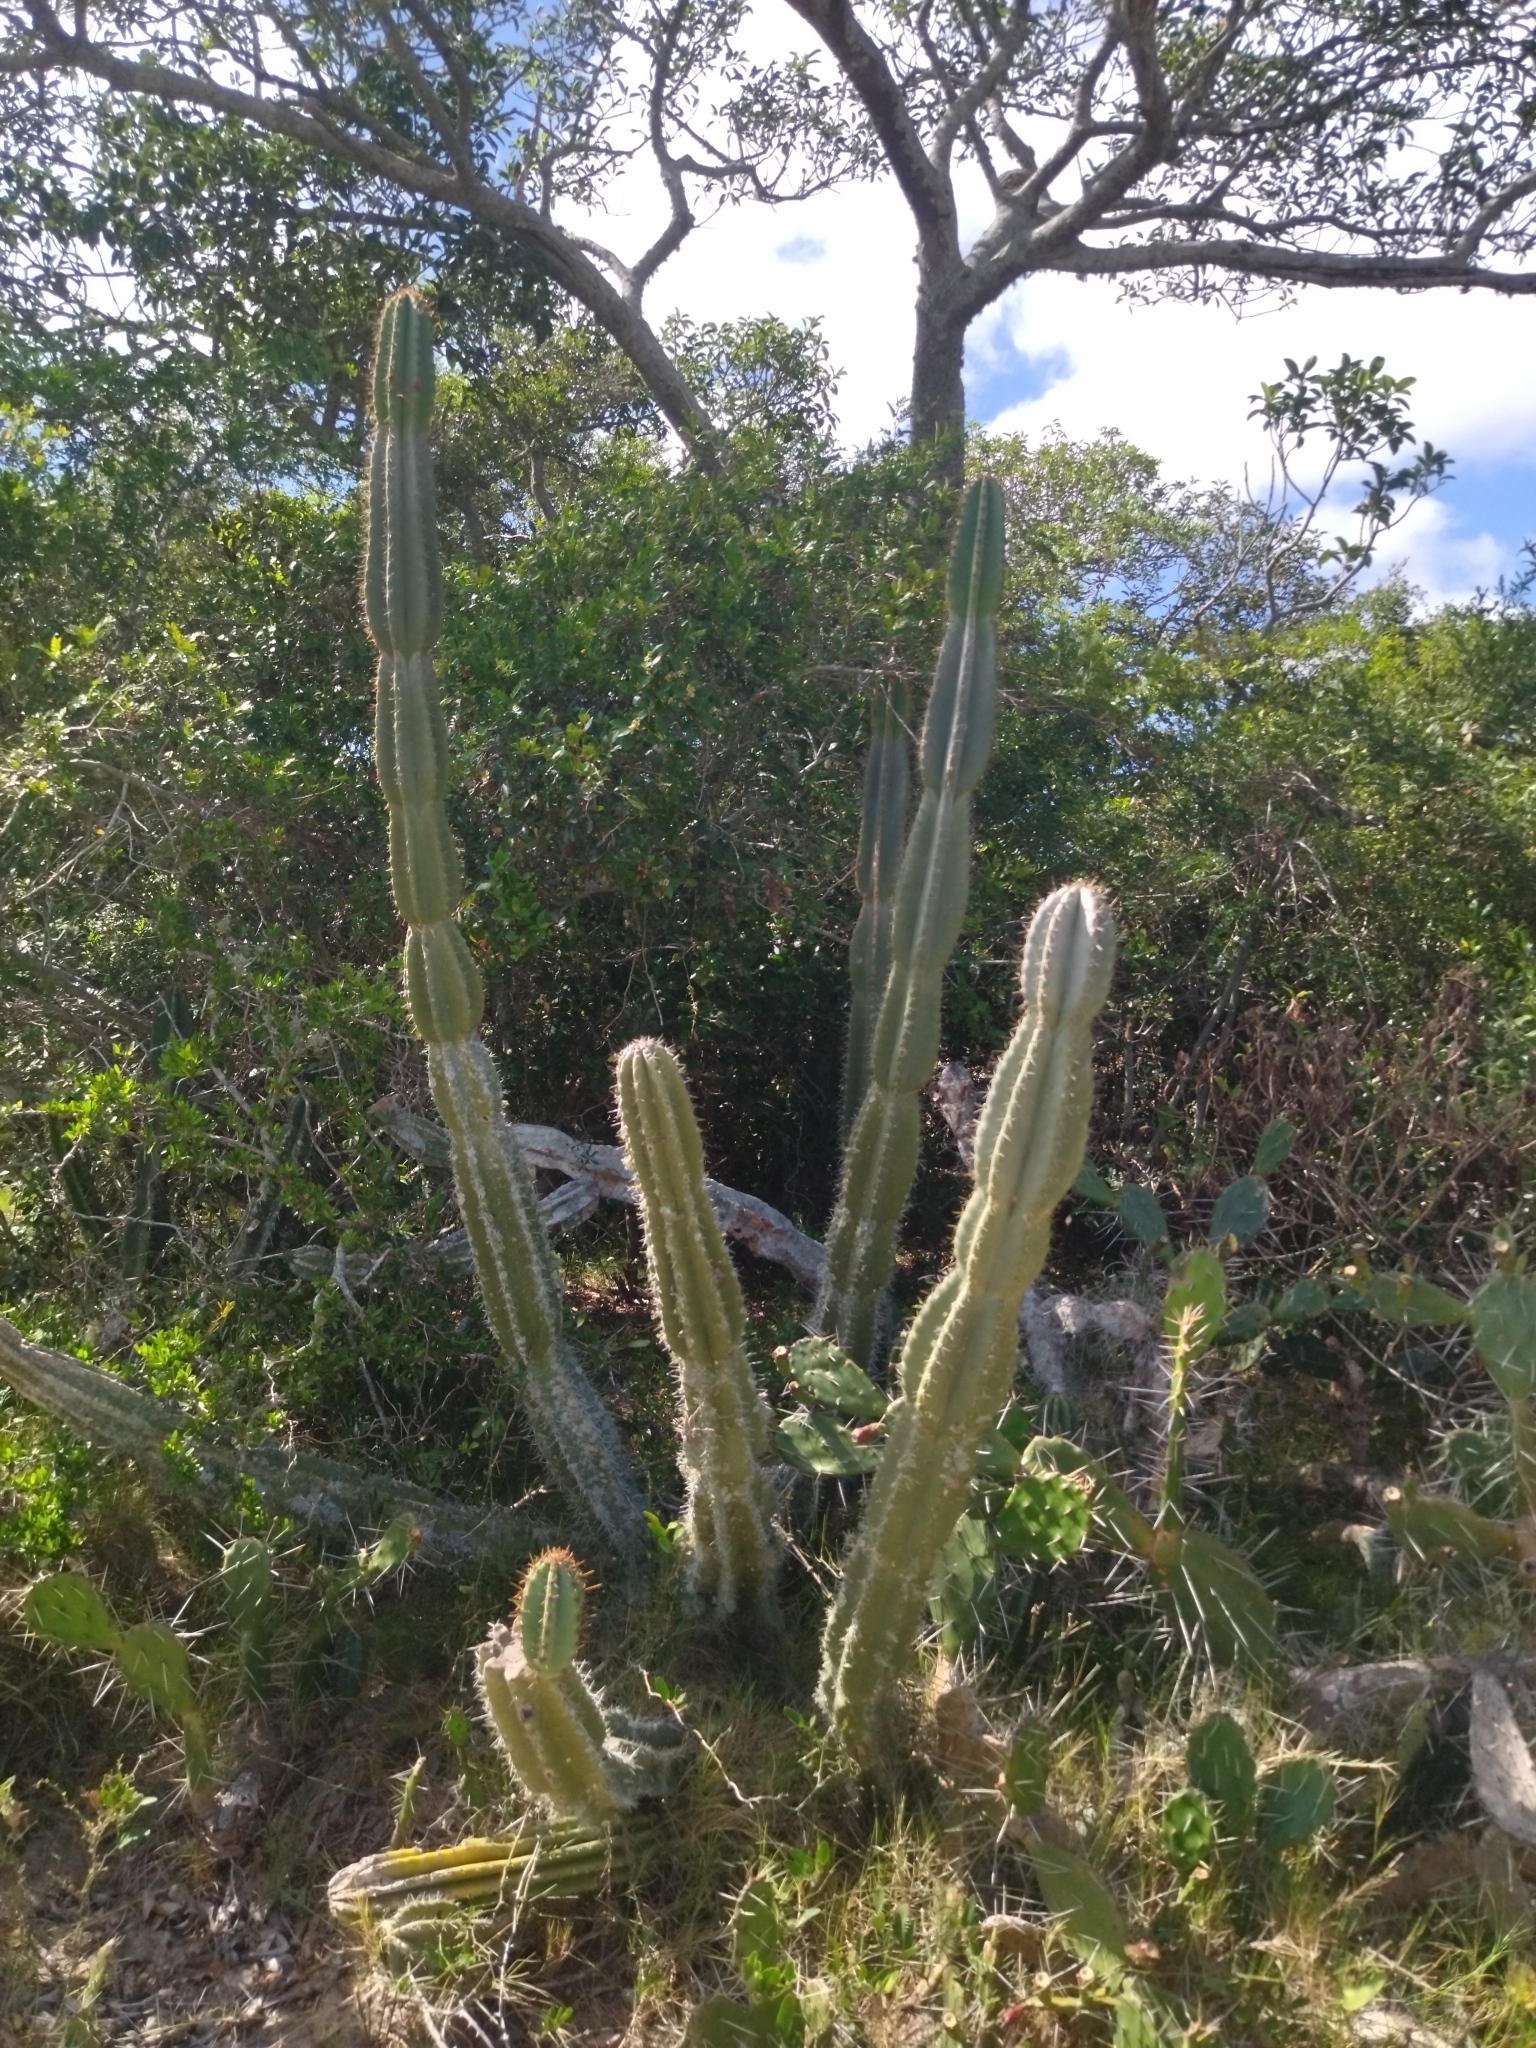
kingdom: Plantae
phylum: Tracheophyta
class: Magnoliopsida
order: Caryophyllales
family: Cactaceae
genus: Cereus
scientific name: Cereus hildmannianus
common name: Hedge cactus
